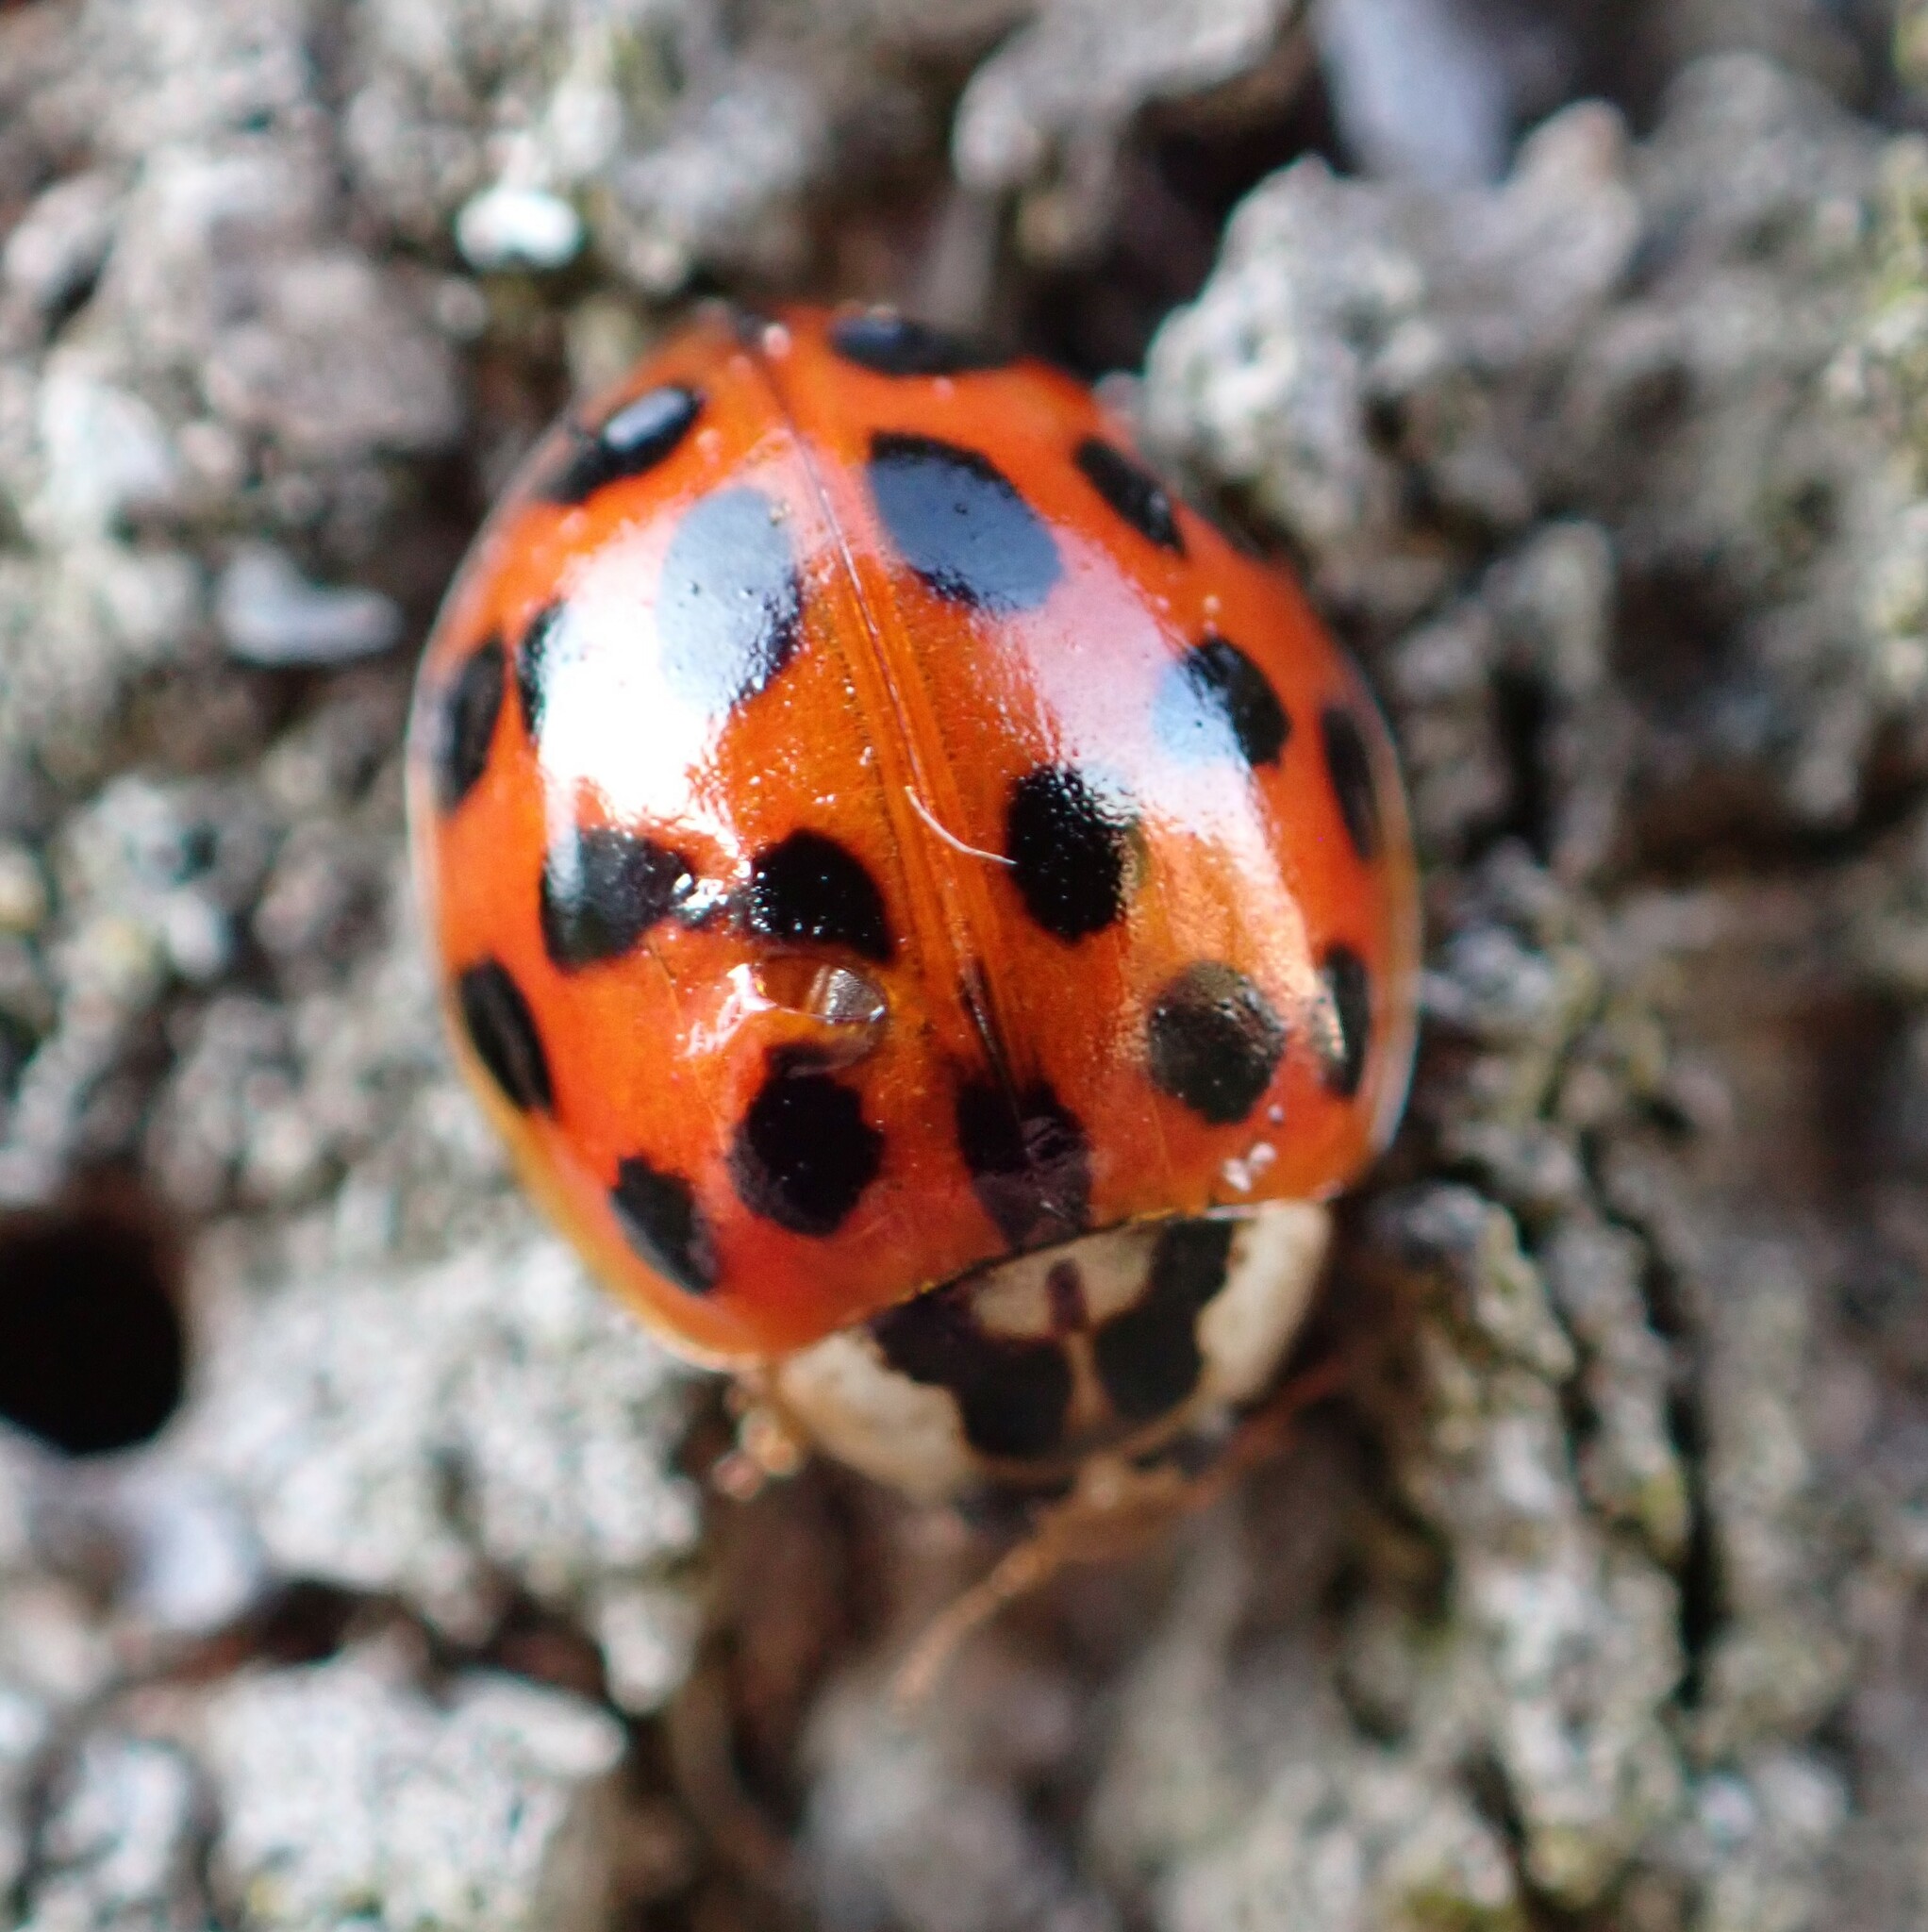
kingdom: Animalia
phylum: Arthropoda
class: Insecta
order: Coleoptera
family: Coccinellidae
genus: Harmonia
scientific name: Harmonia axyridis
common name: Harlequin ladybird
